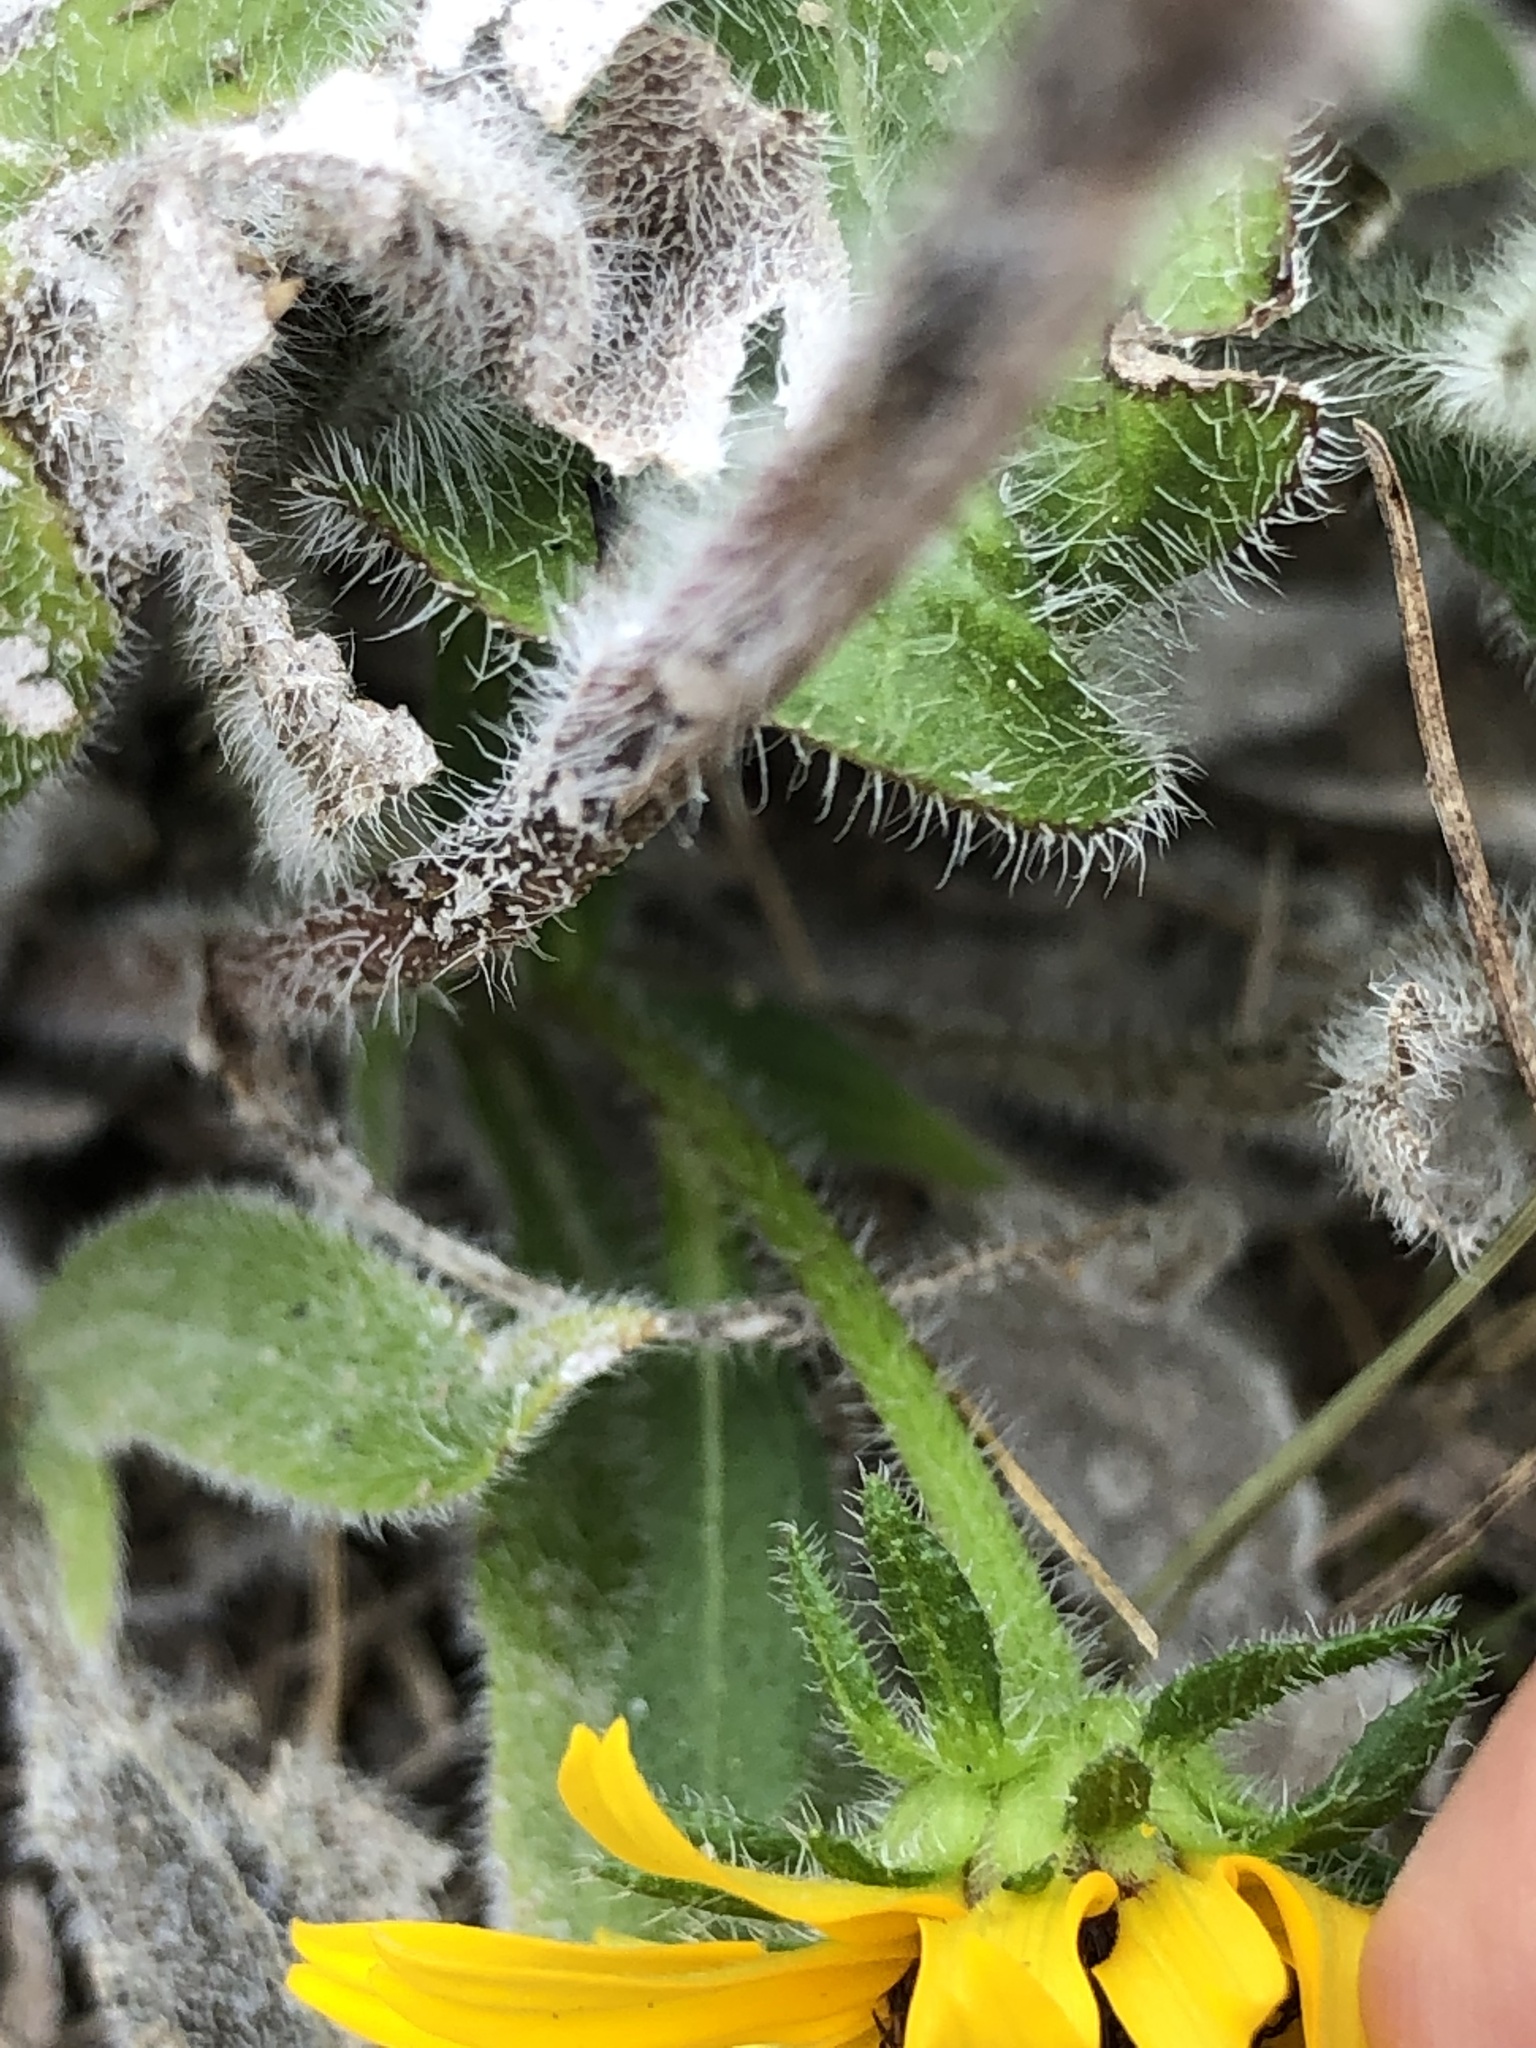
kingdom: Plantae
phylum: Tracheophyta
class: Magnoliopsida
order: Asterales
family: Asteraceae
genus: Rudbeckia
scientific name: Rudbeckia hirta
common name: Black-eyed-susan
